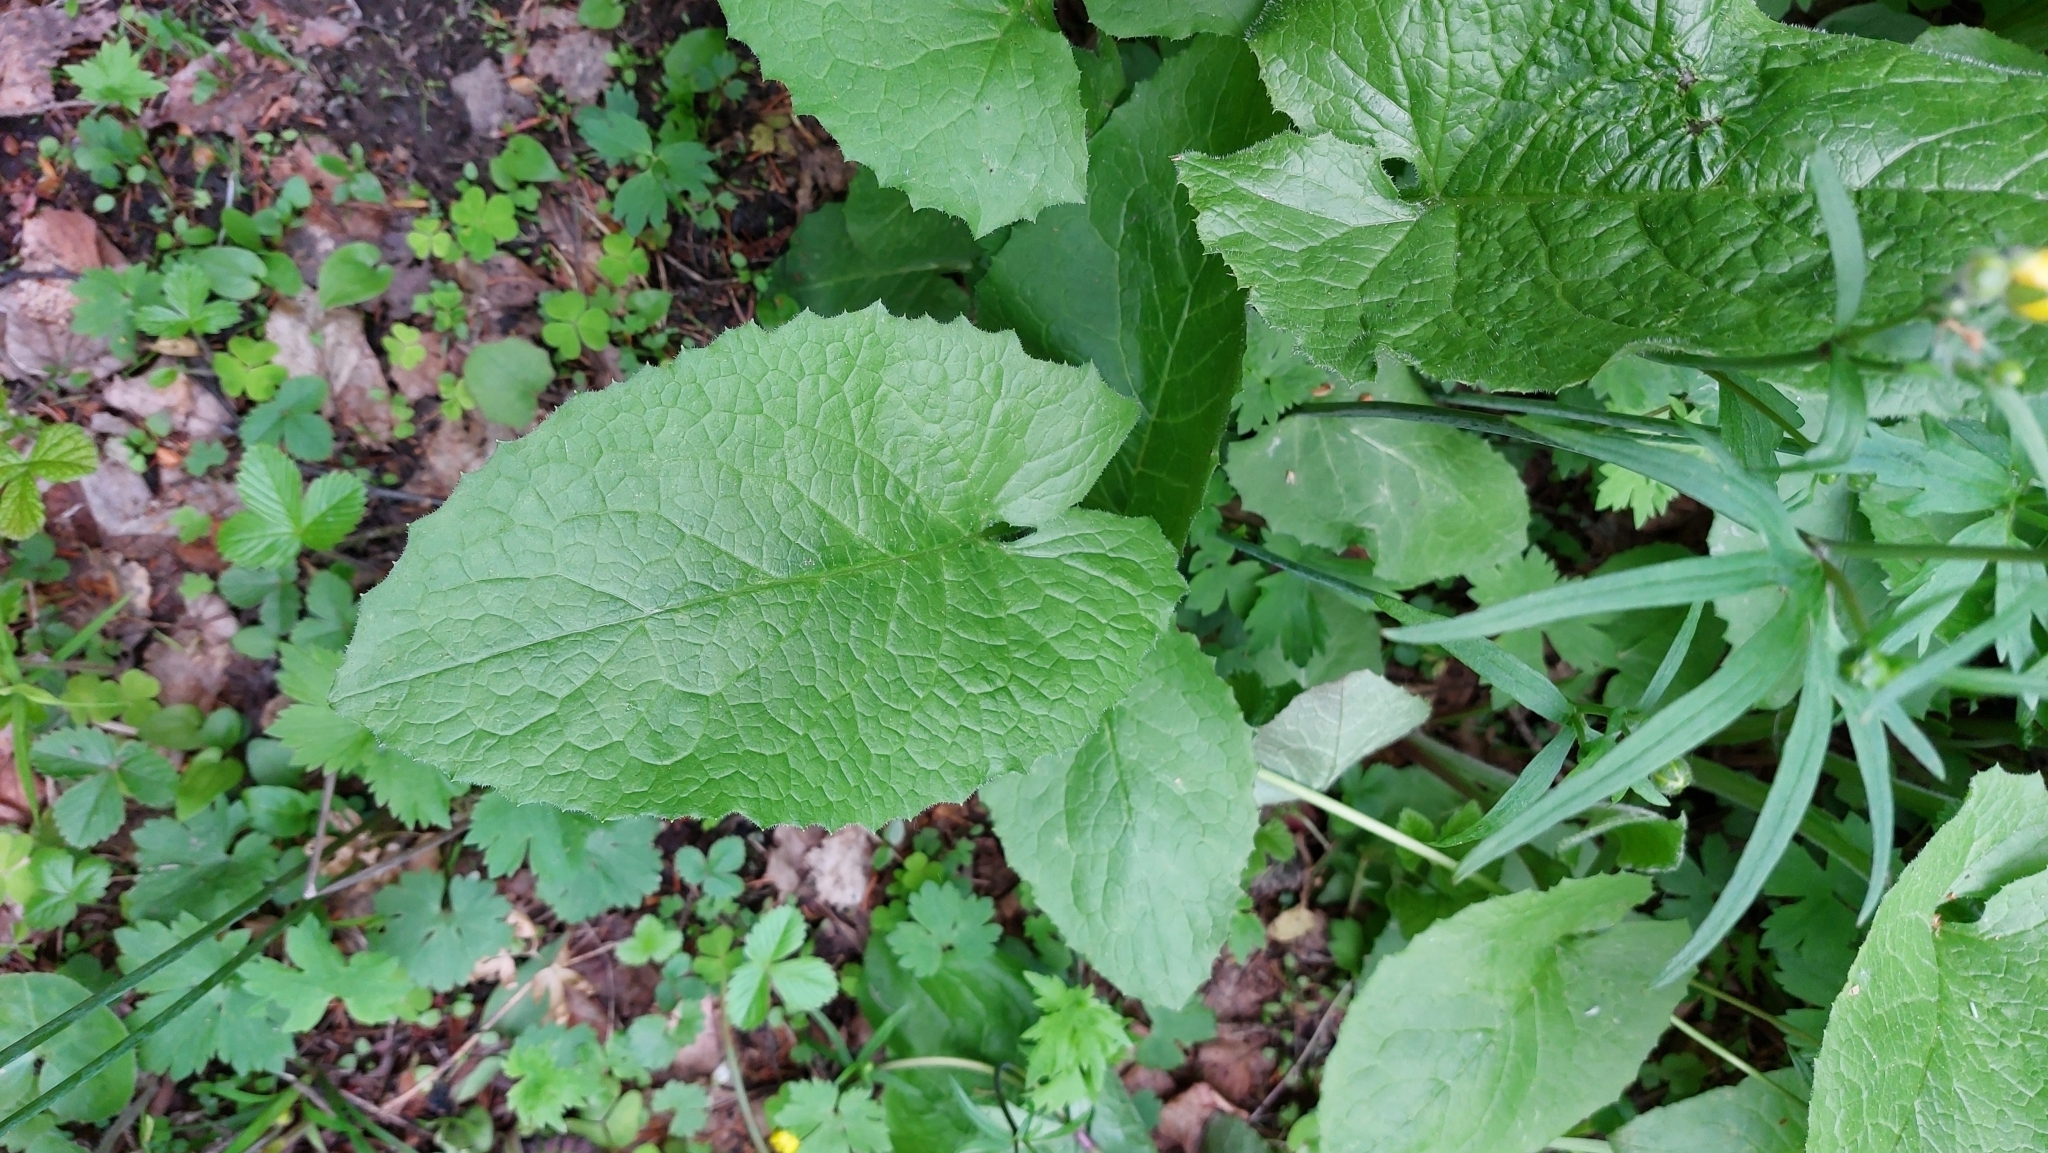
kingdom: Plantae
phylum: Tracheophyta
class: Magnoliopsida
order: Asterales
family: Asteraceae
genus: Lactuca
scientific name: Lactuca macrophylla
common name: Common blue-sow-thistle
